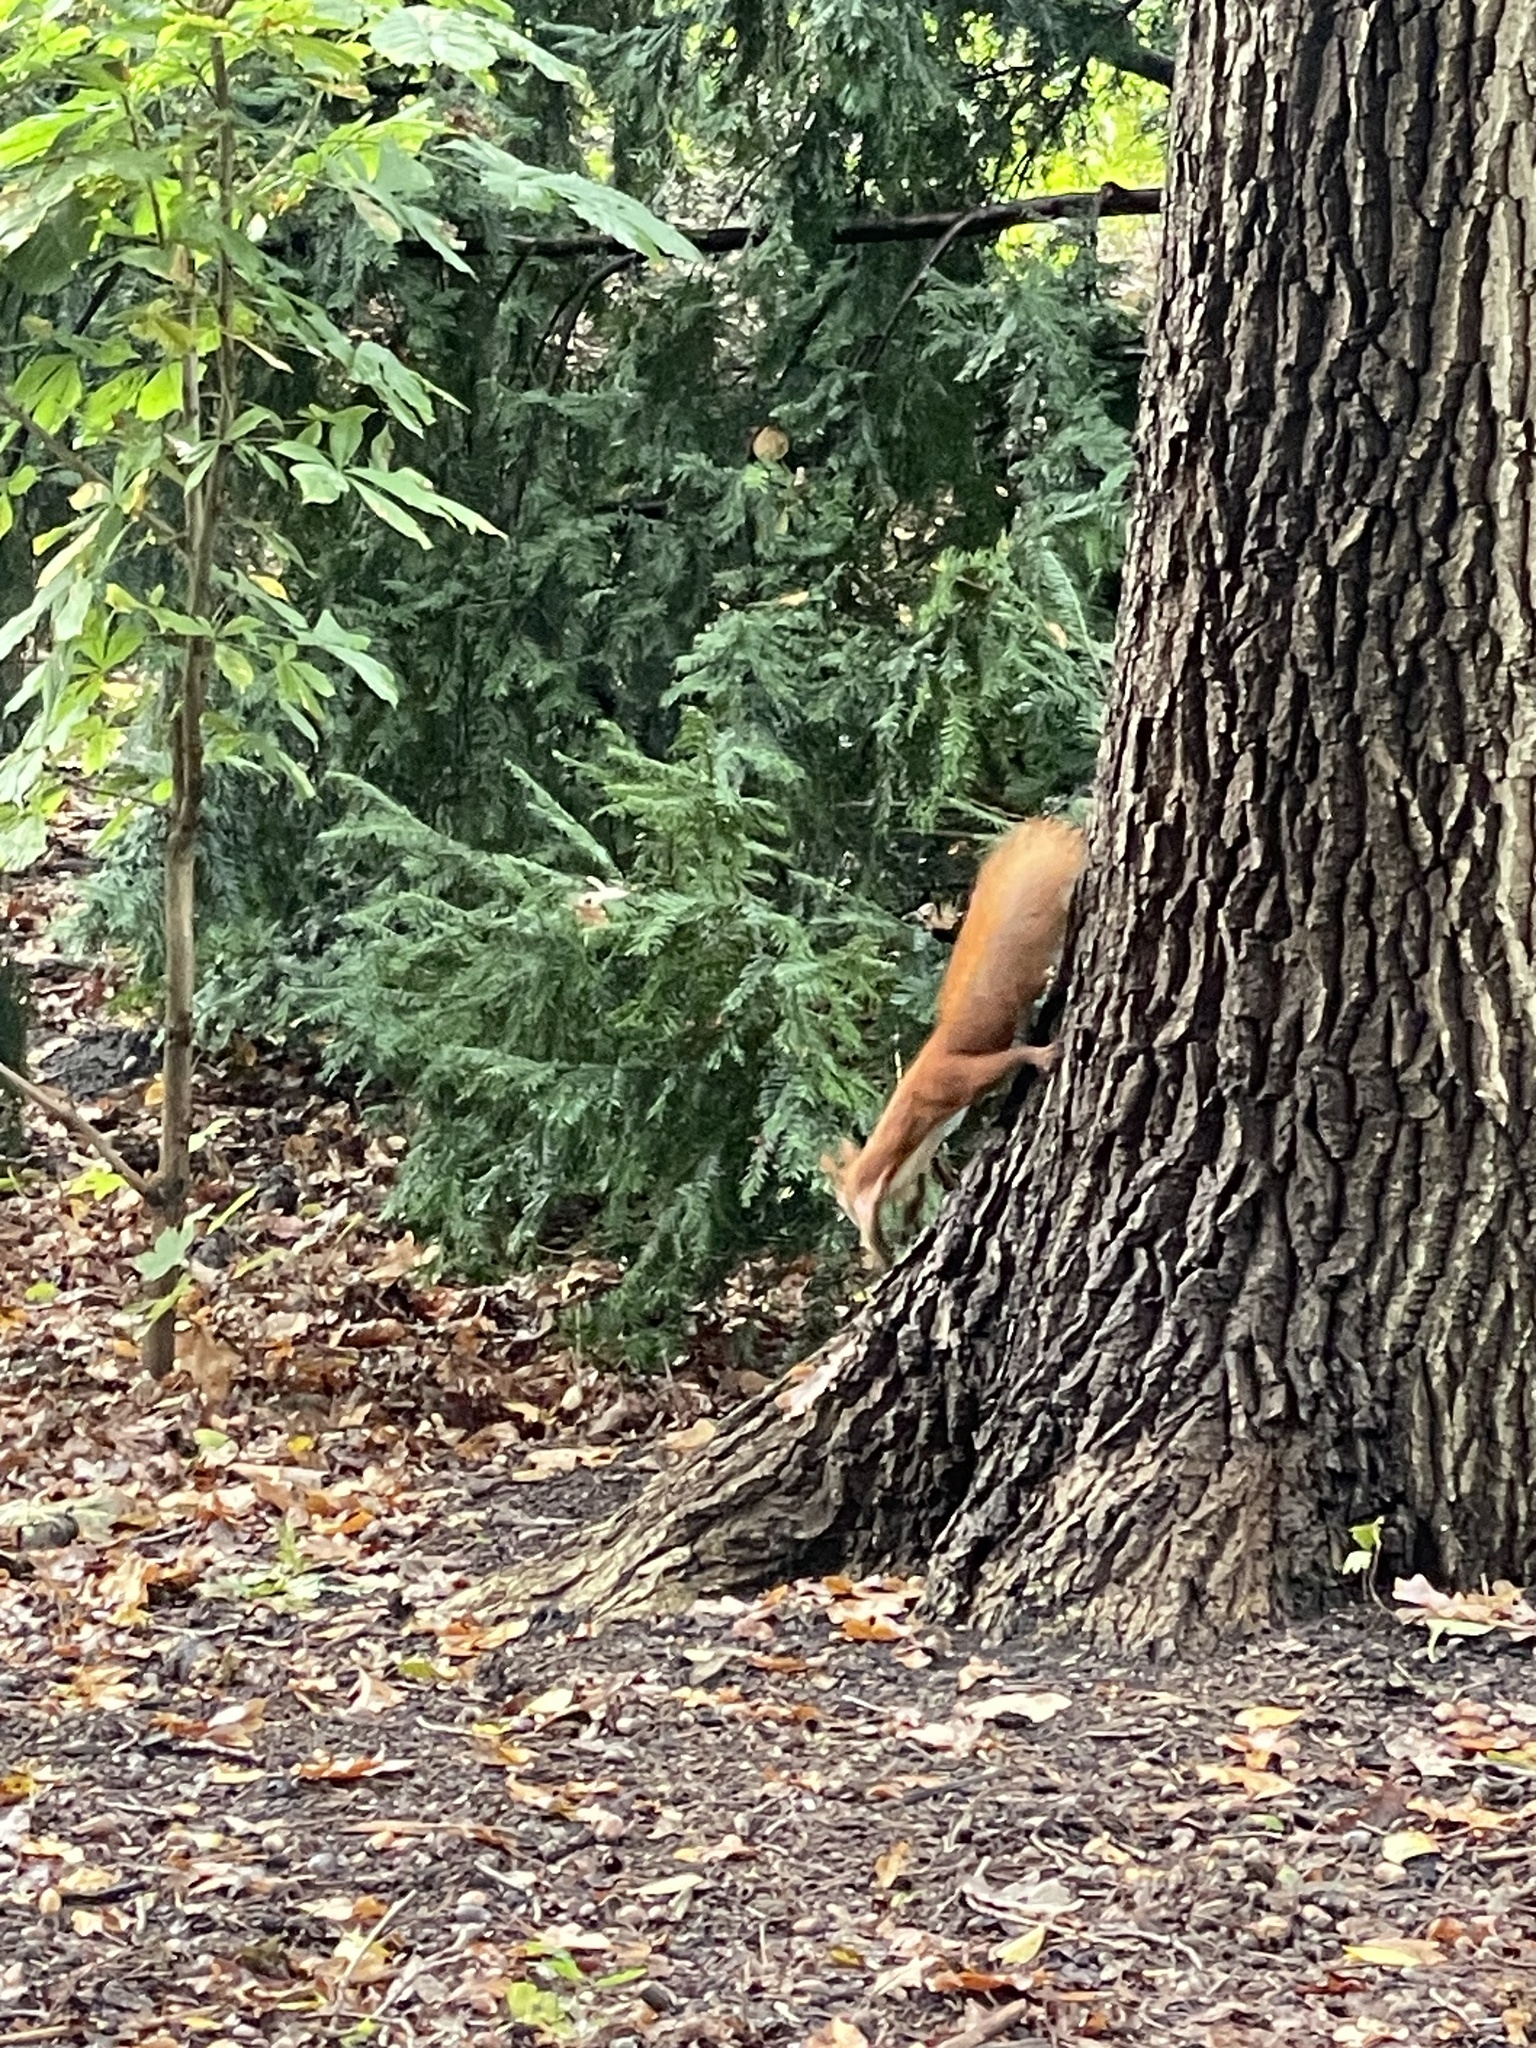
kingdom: Animalia
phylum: Chordata
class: Mammalia
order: Rodentia
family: Sciuridae
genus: Sciurus
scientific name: Sciurus vulgaris
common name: Eurasian red squirrel
